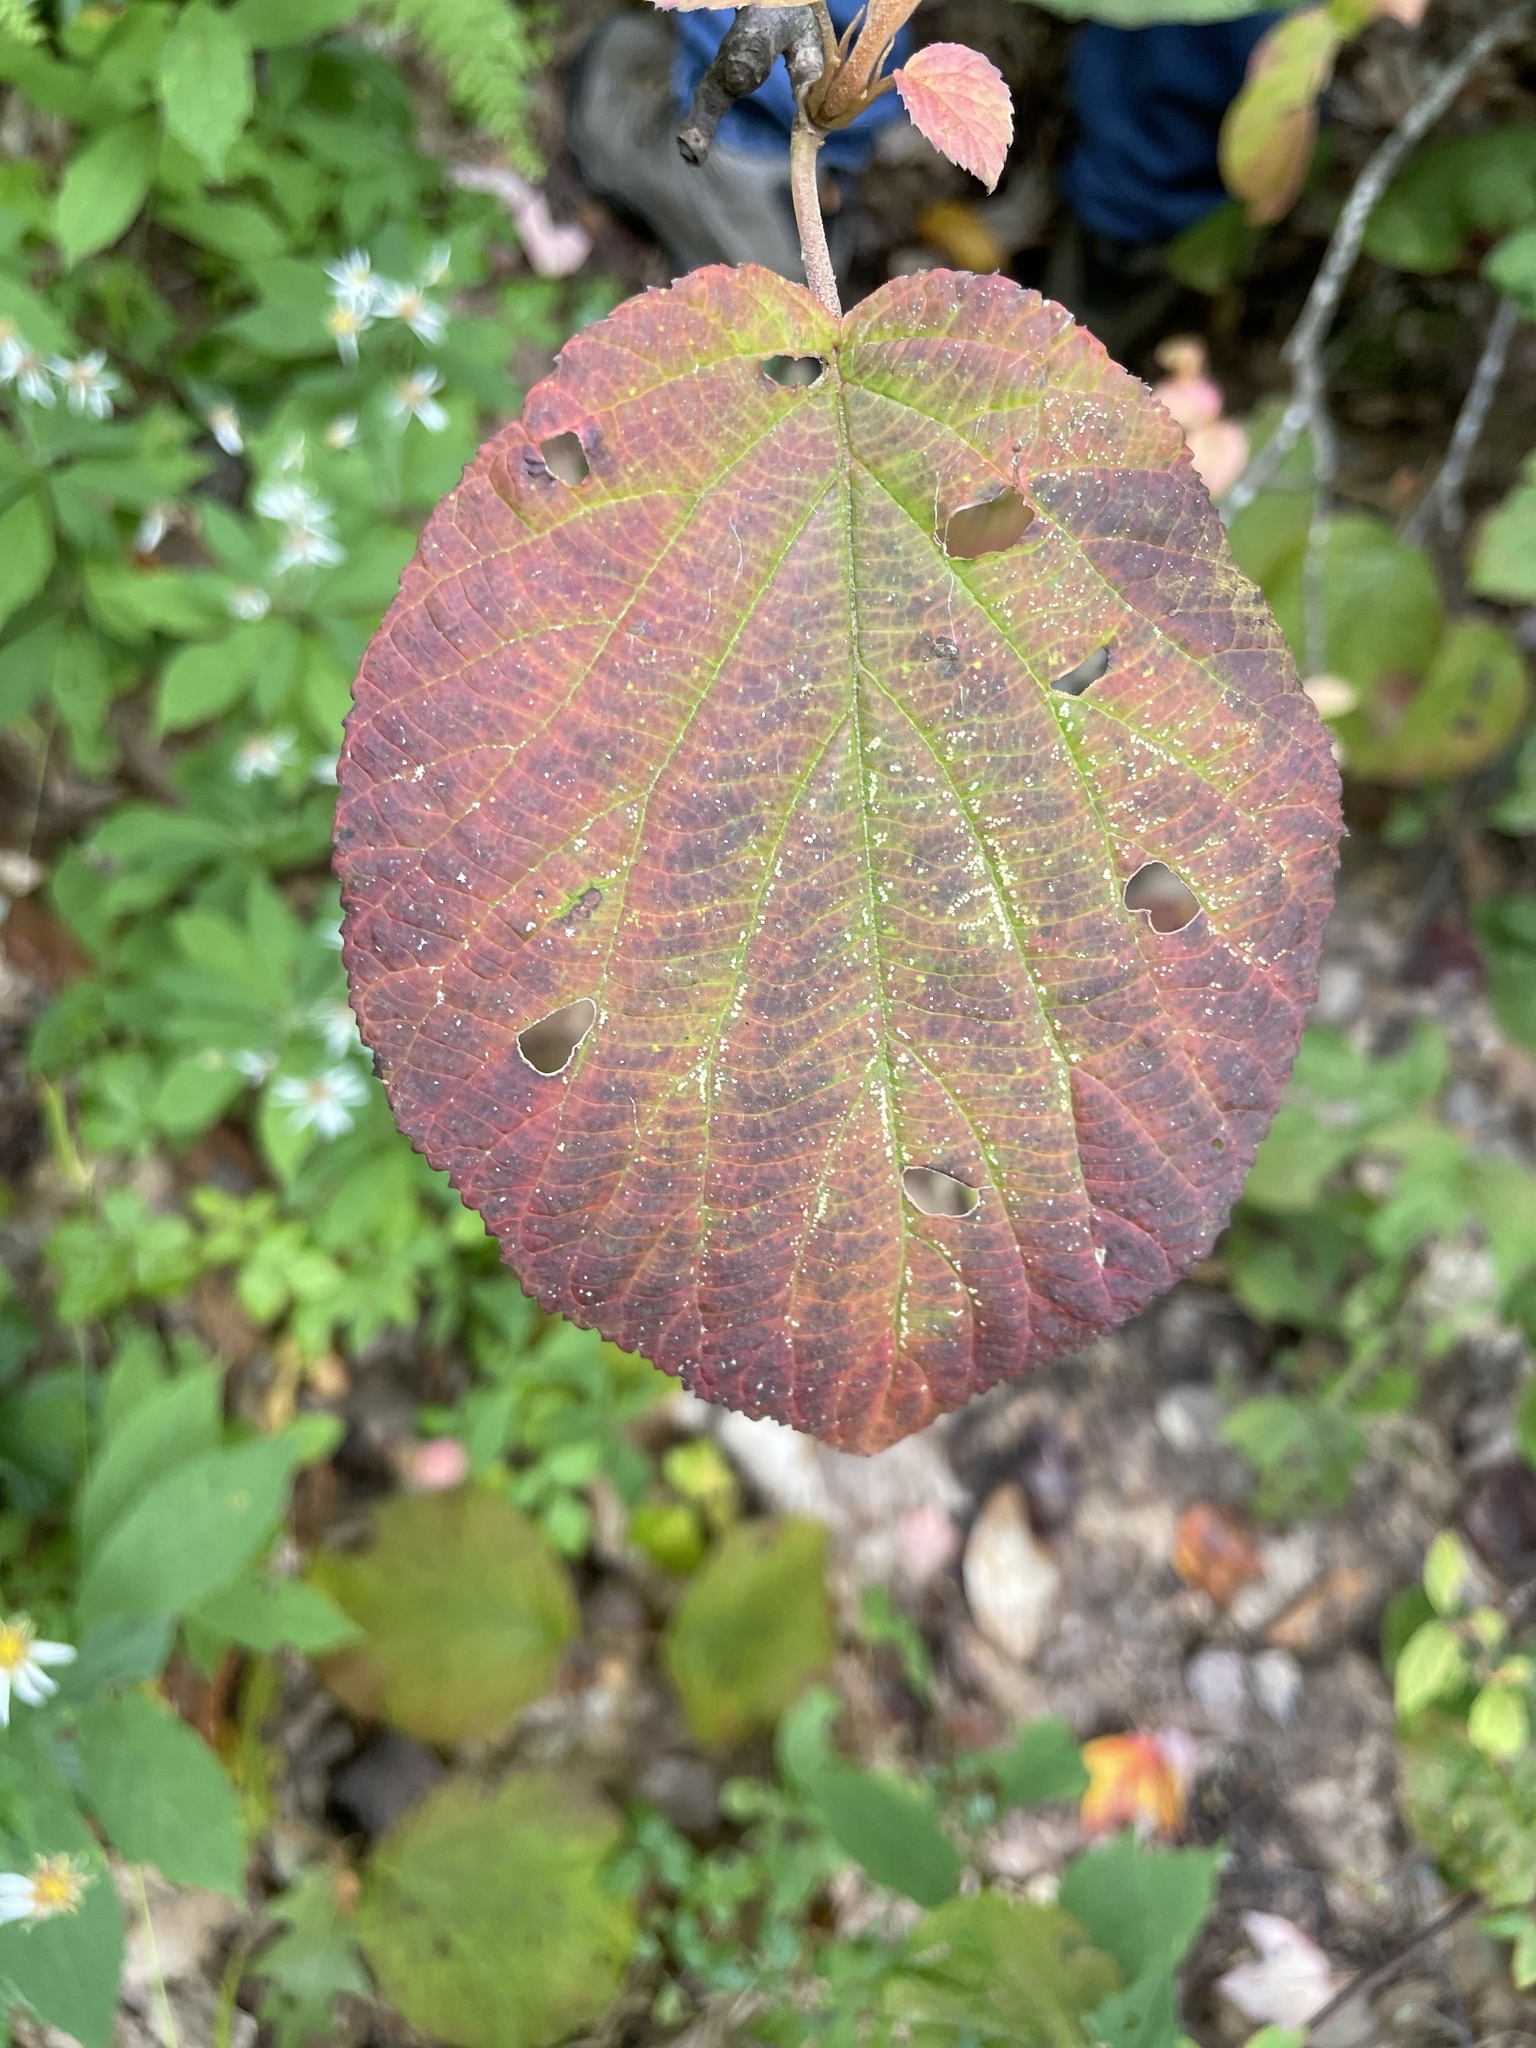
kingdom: Plantae
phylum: Tracheophyta
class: Magnoliopsida
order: Dipsacales
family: Viburnaceae
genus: Viburnum
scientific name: Viburnum lantanoides
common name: Hobblebush
